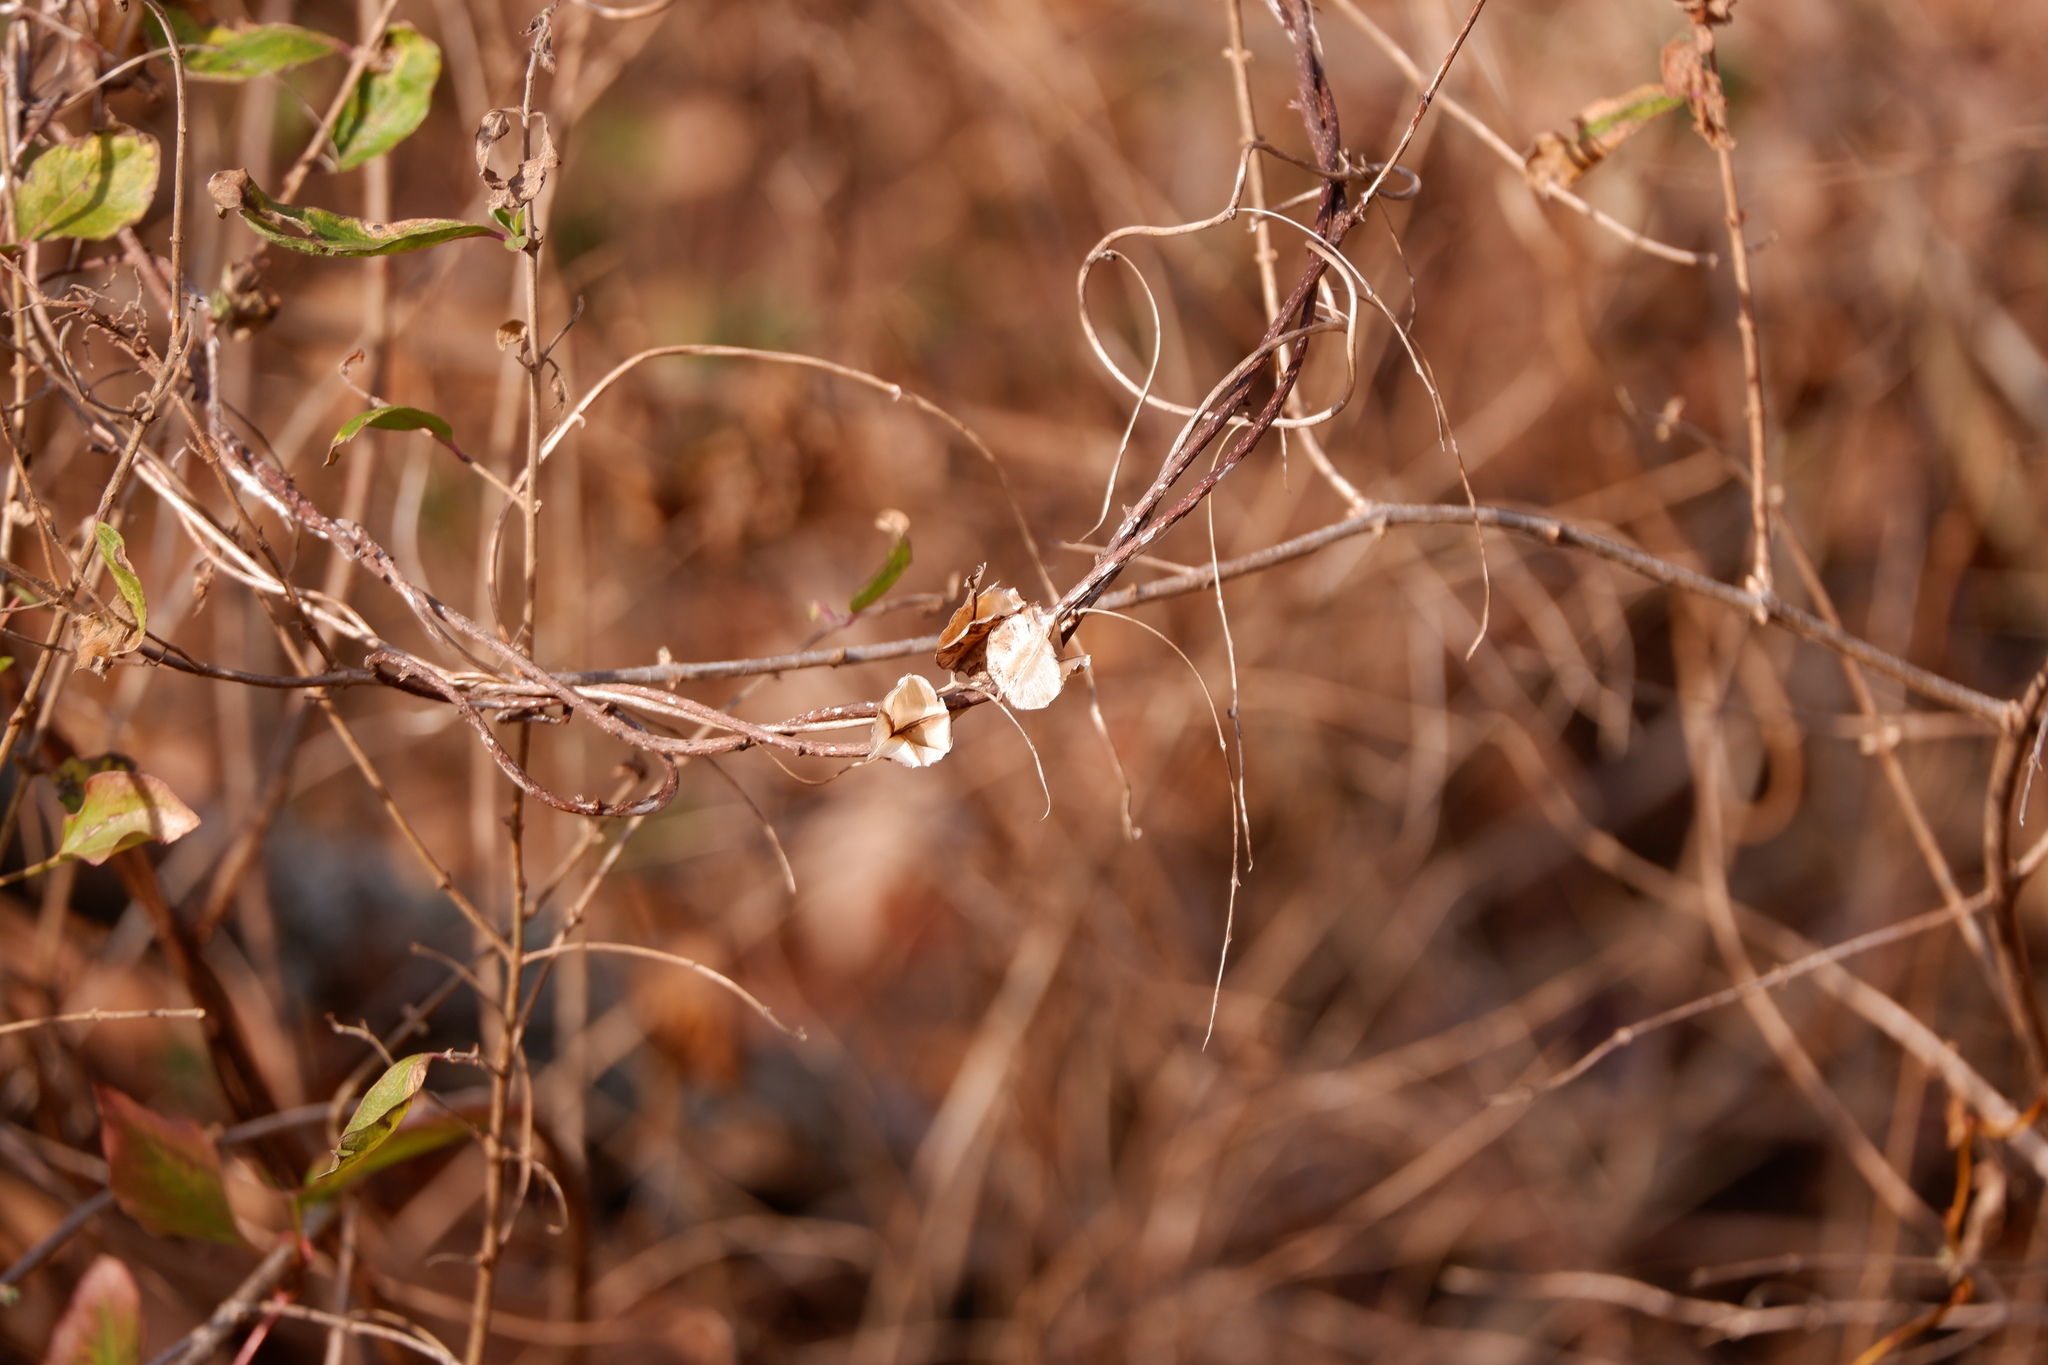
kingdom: Plantae
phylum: Tracheophyta
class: Liliopsida
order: Dioscoreales
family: Dioscoreaceae
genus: Dioscorea
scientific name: Dioscorea villosa
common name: Wild yam
